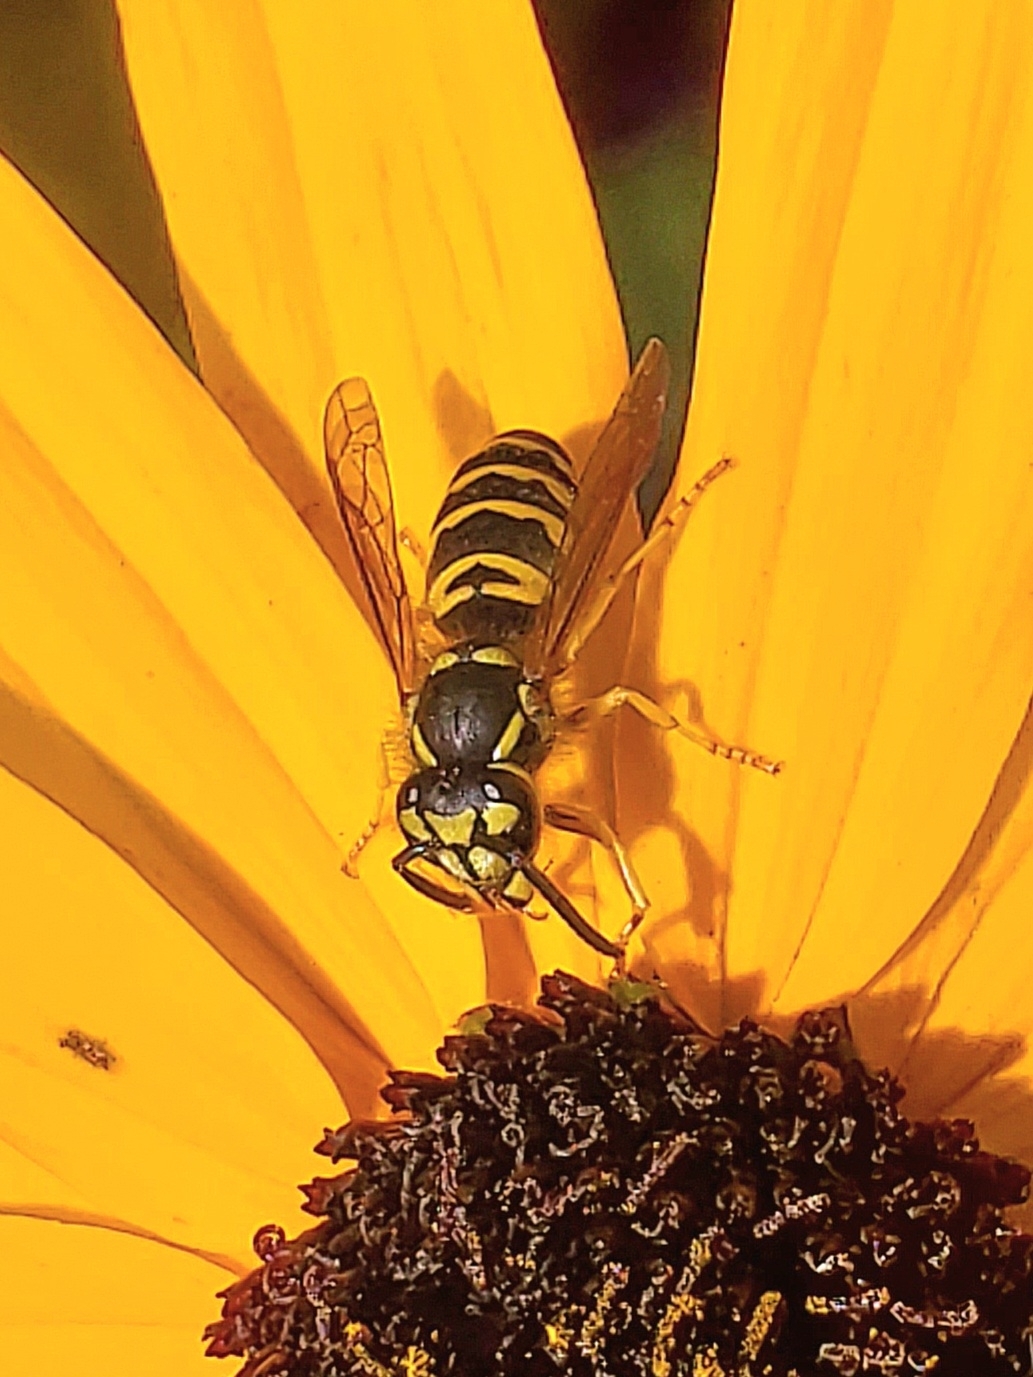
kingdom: Animalia
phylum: Arthropoda
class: Insecta
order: Hymenoptera
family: Vespidae
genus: Vespula
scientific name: Vespula maculifrons
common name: Eastern yellowjacket
